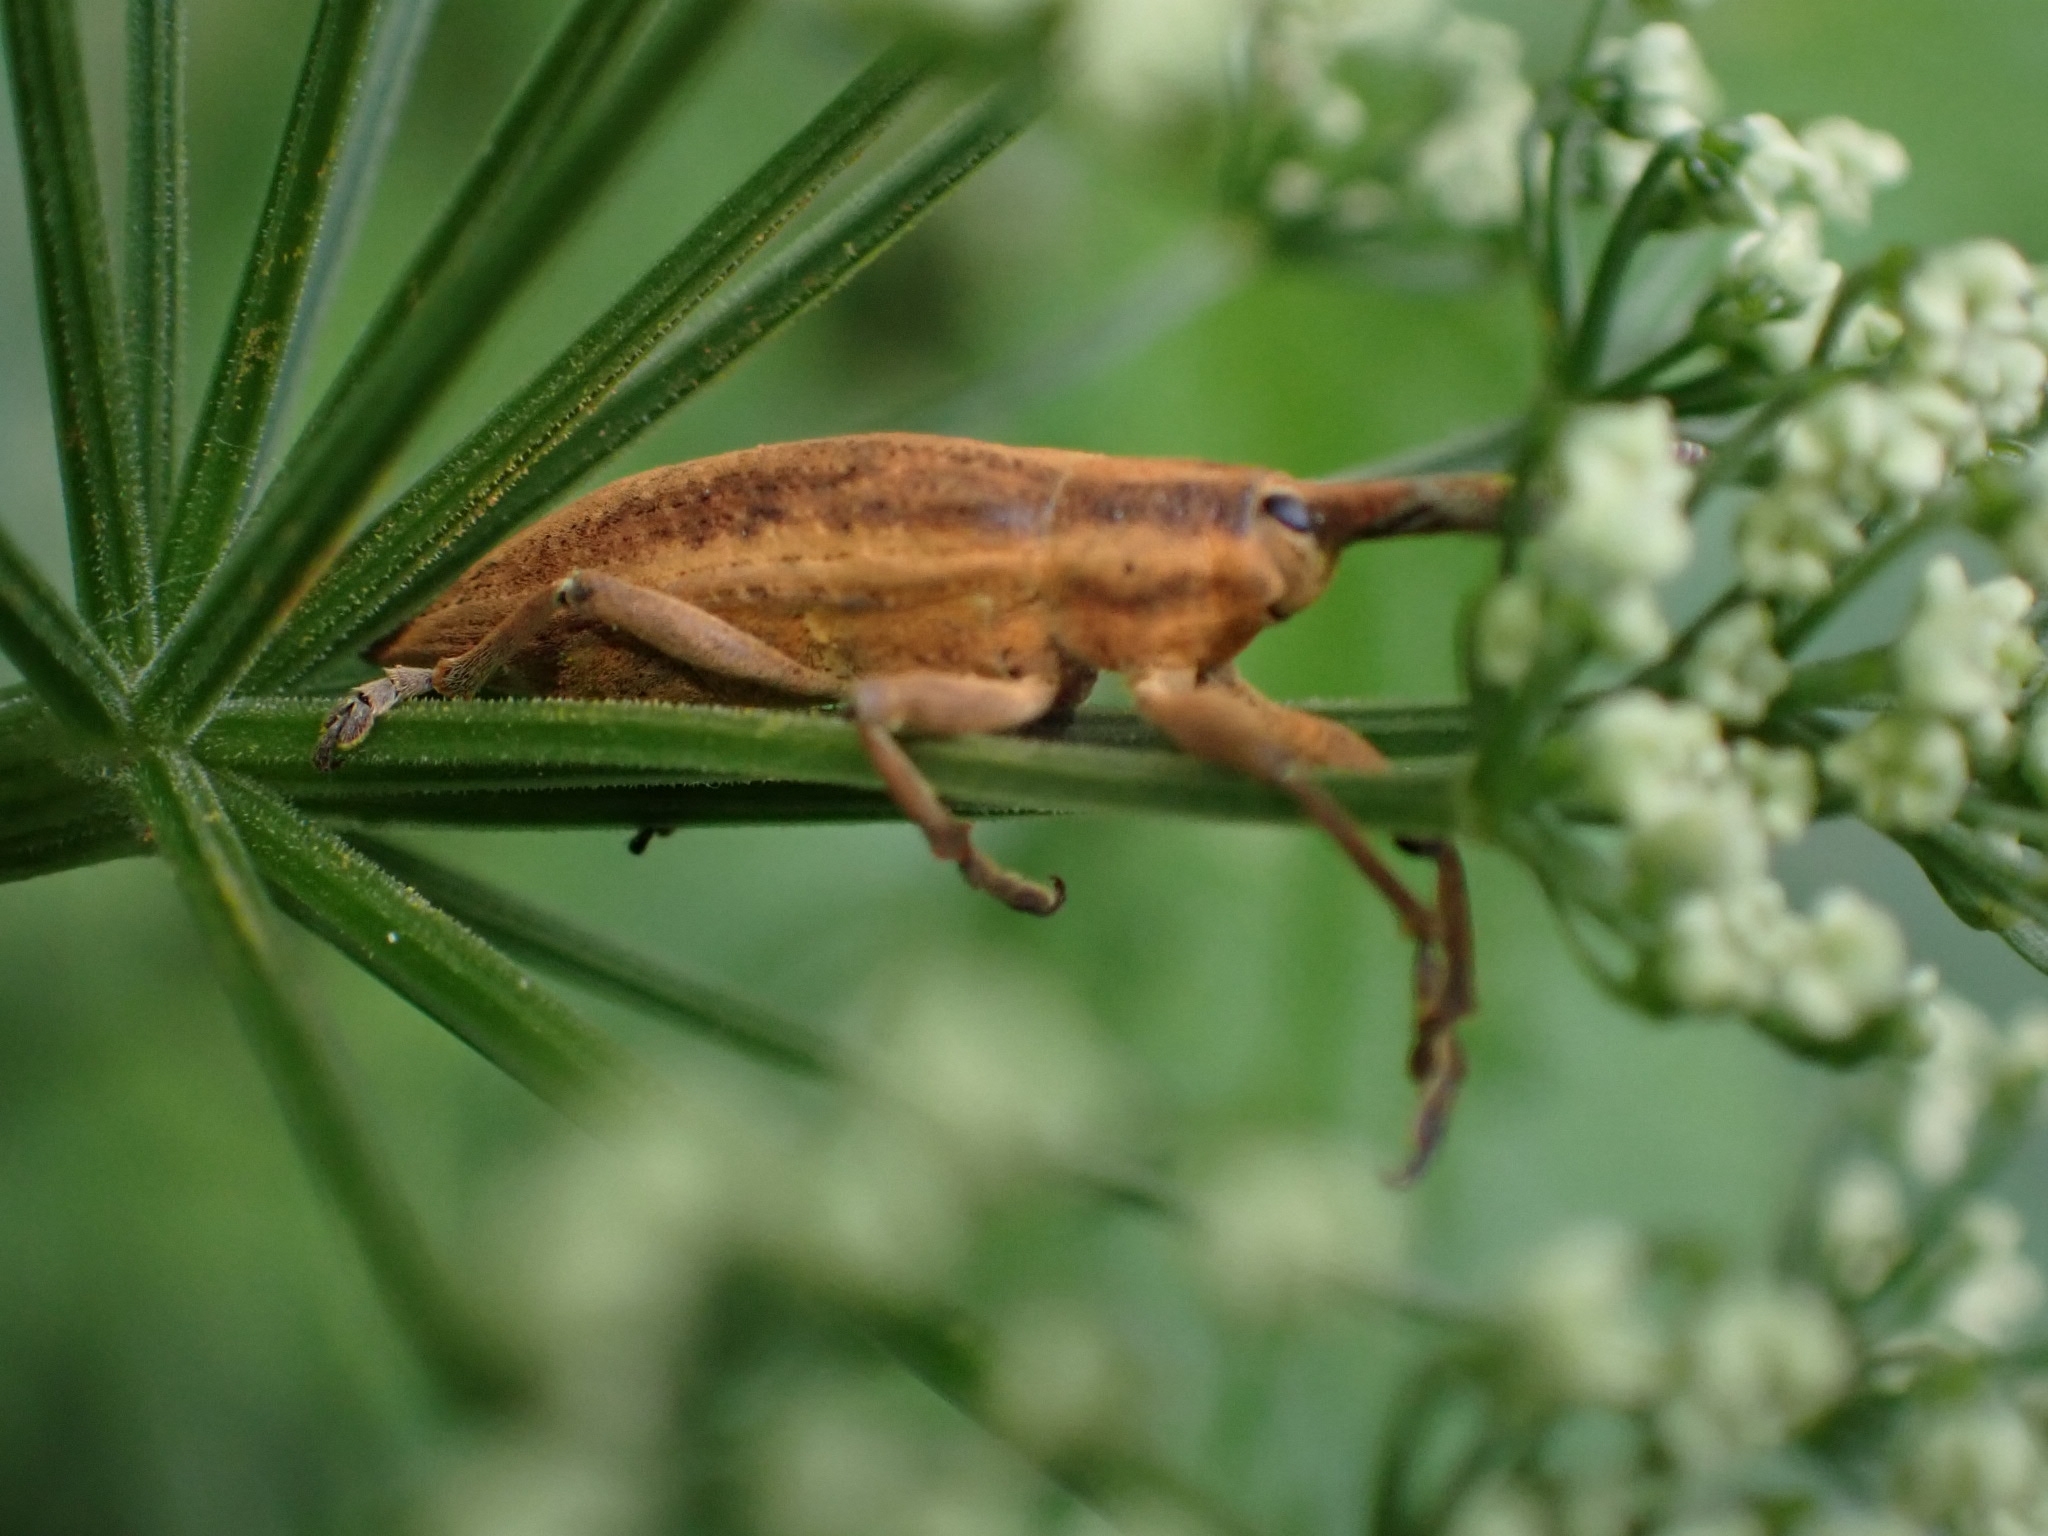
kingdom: Animalia
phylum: Arthropoda
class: Insecta
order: Coleoptera
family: Curculionidae
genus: Lixus
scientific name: Lixus iridis
